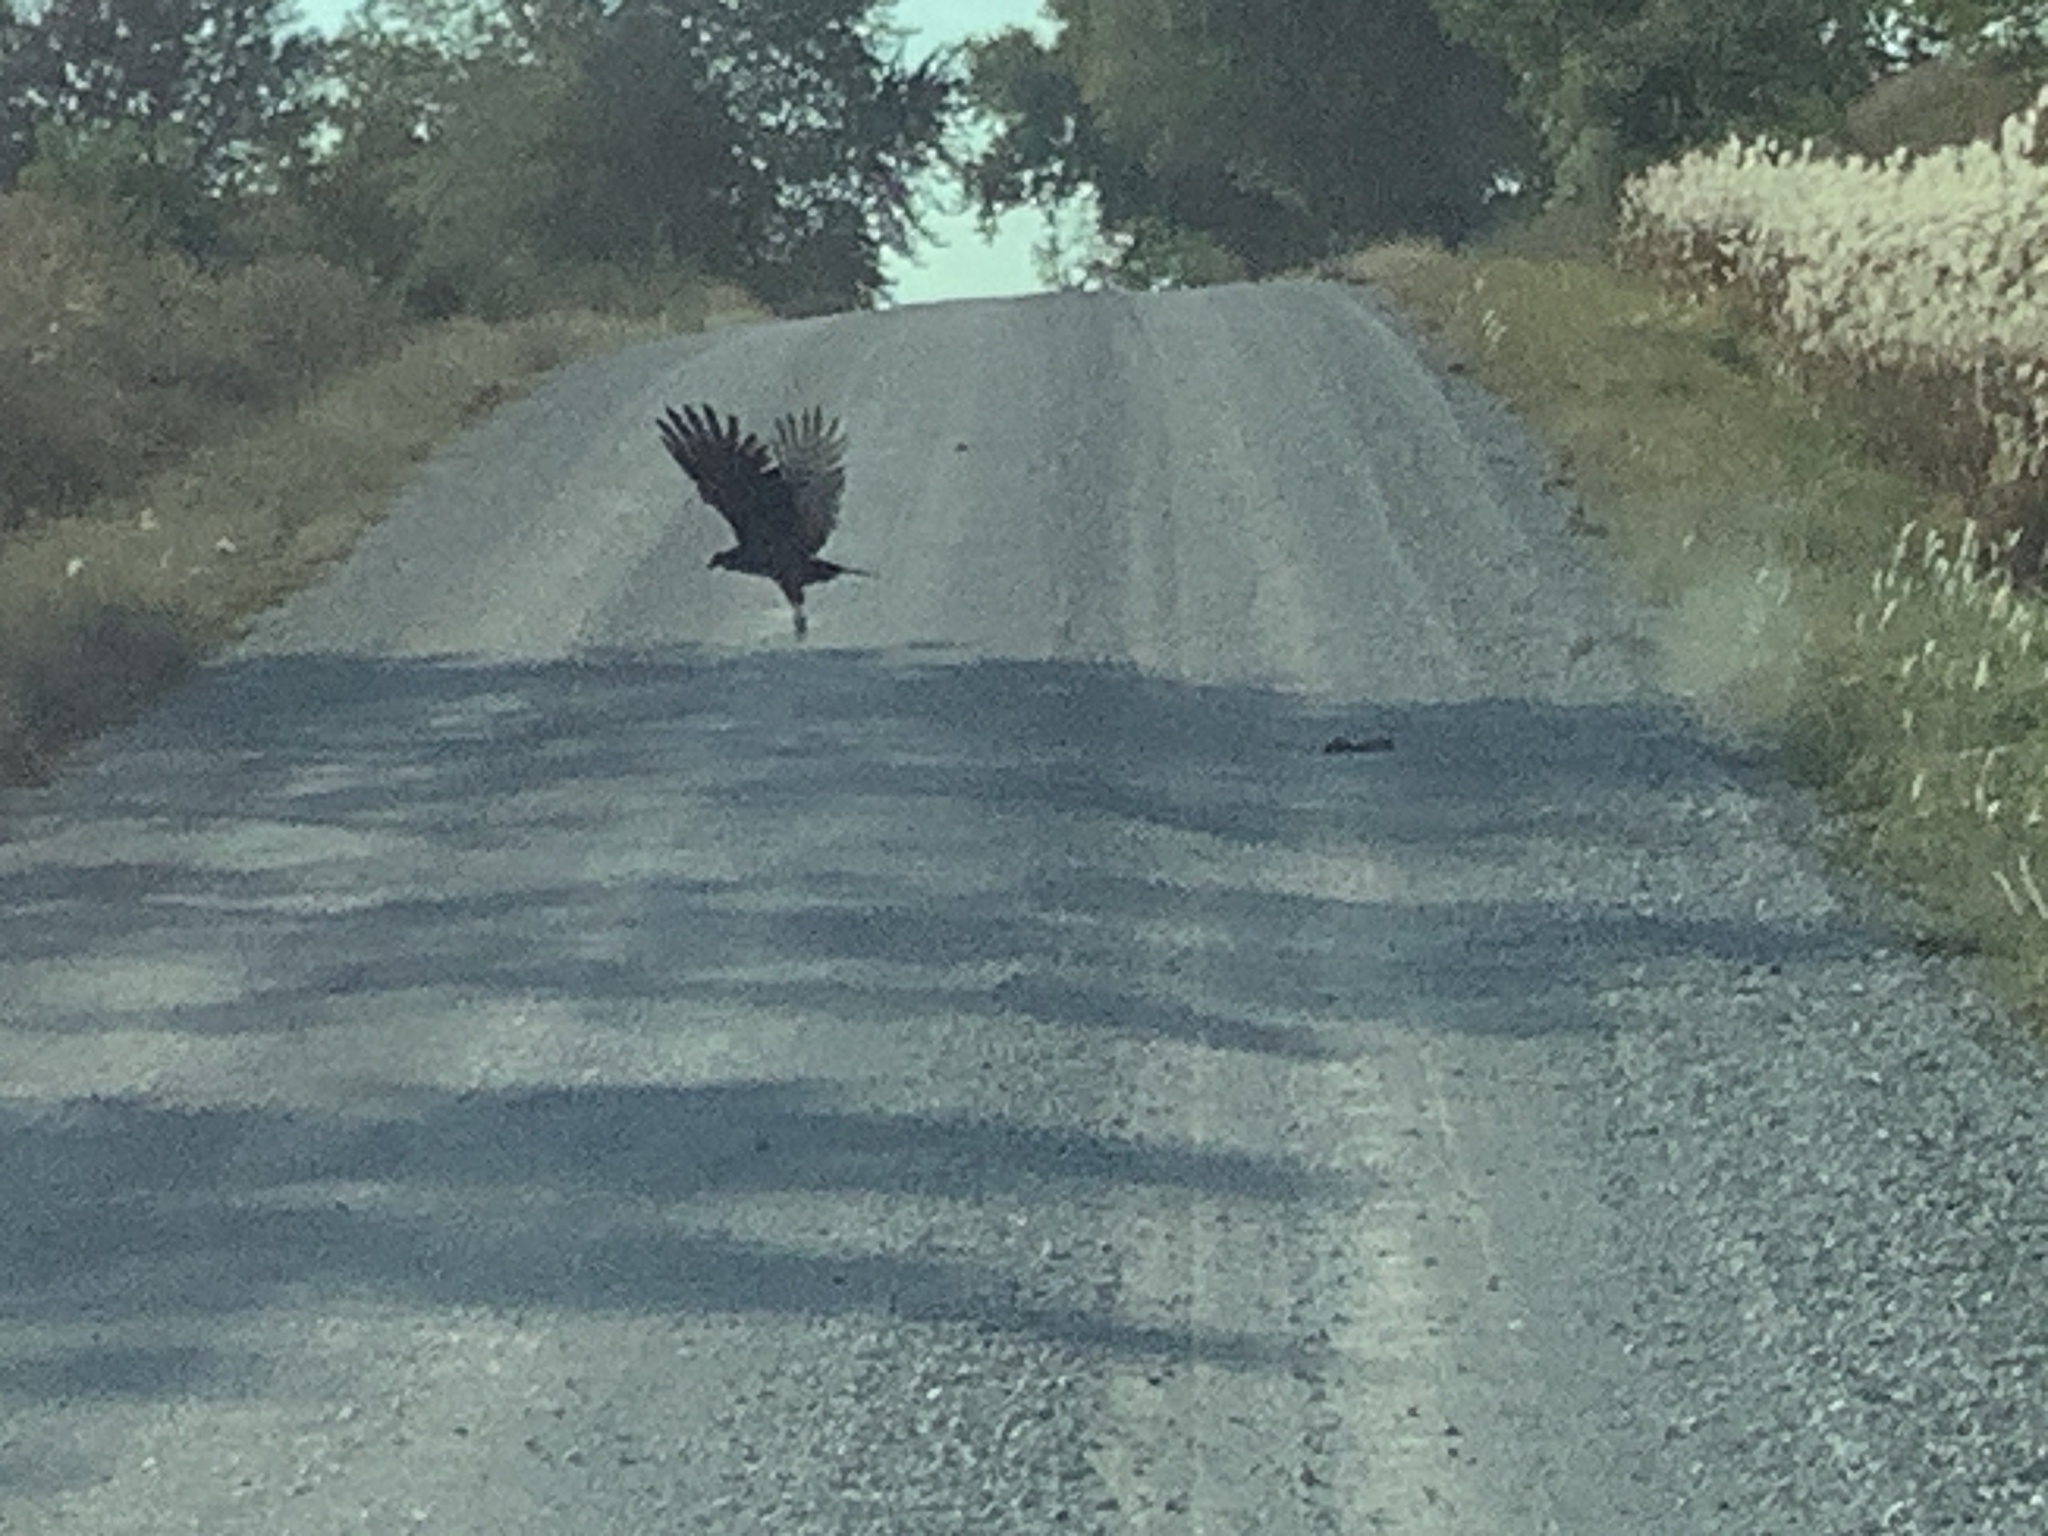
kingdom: Animalia
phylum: Chordata
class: Aves
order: Accipitriformes
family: Cathartidae
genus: Cathartes
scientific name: Cathartes aura
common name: Turkey vulture
